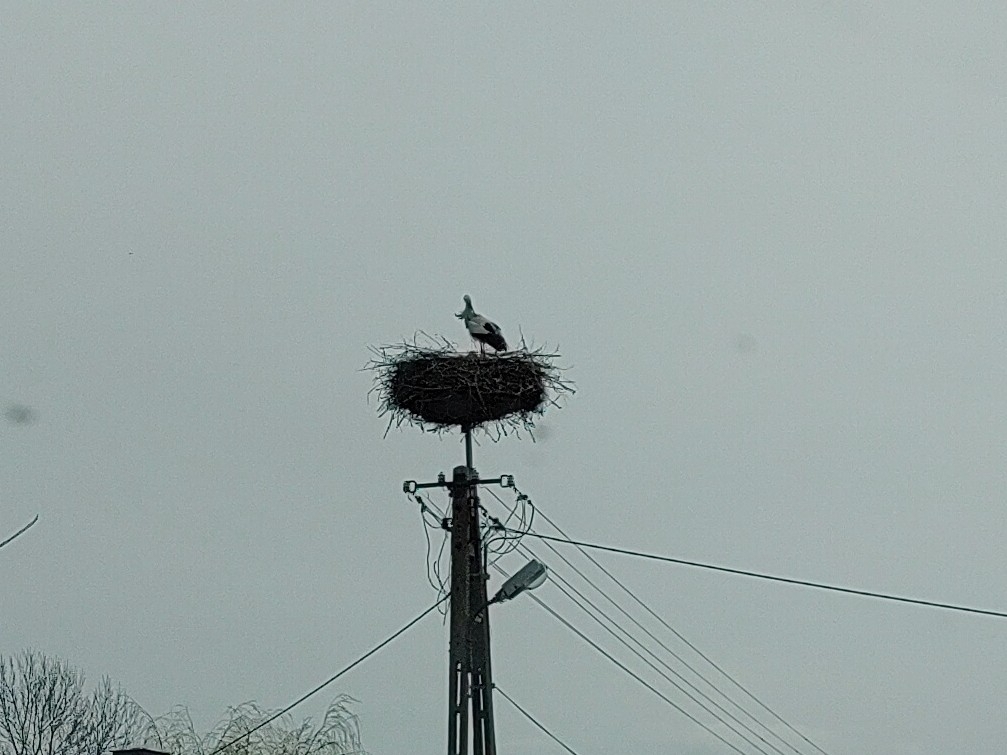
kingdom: Animalia
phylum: Chordata
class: Aves
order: Ciconiiformes
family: Ciconiidae
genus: Ciconia
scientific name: Ciconia ciconia
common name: White stork
